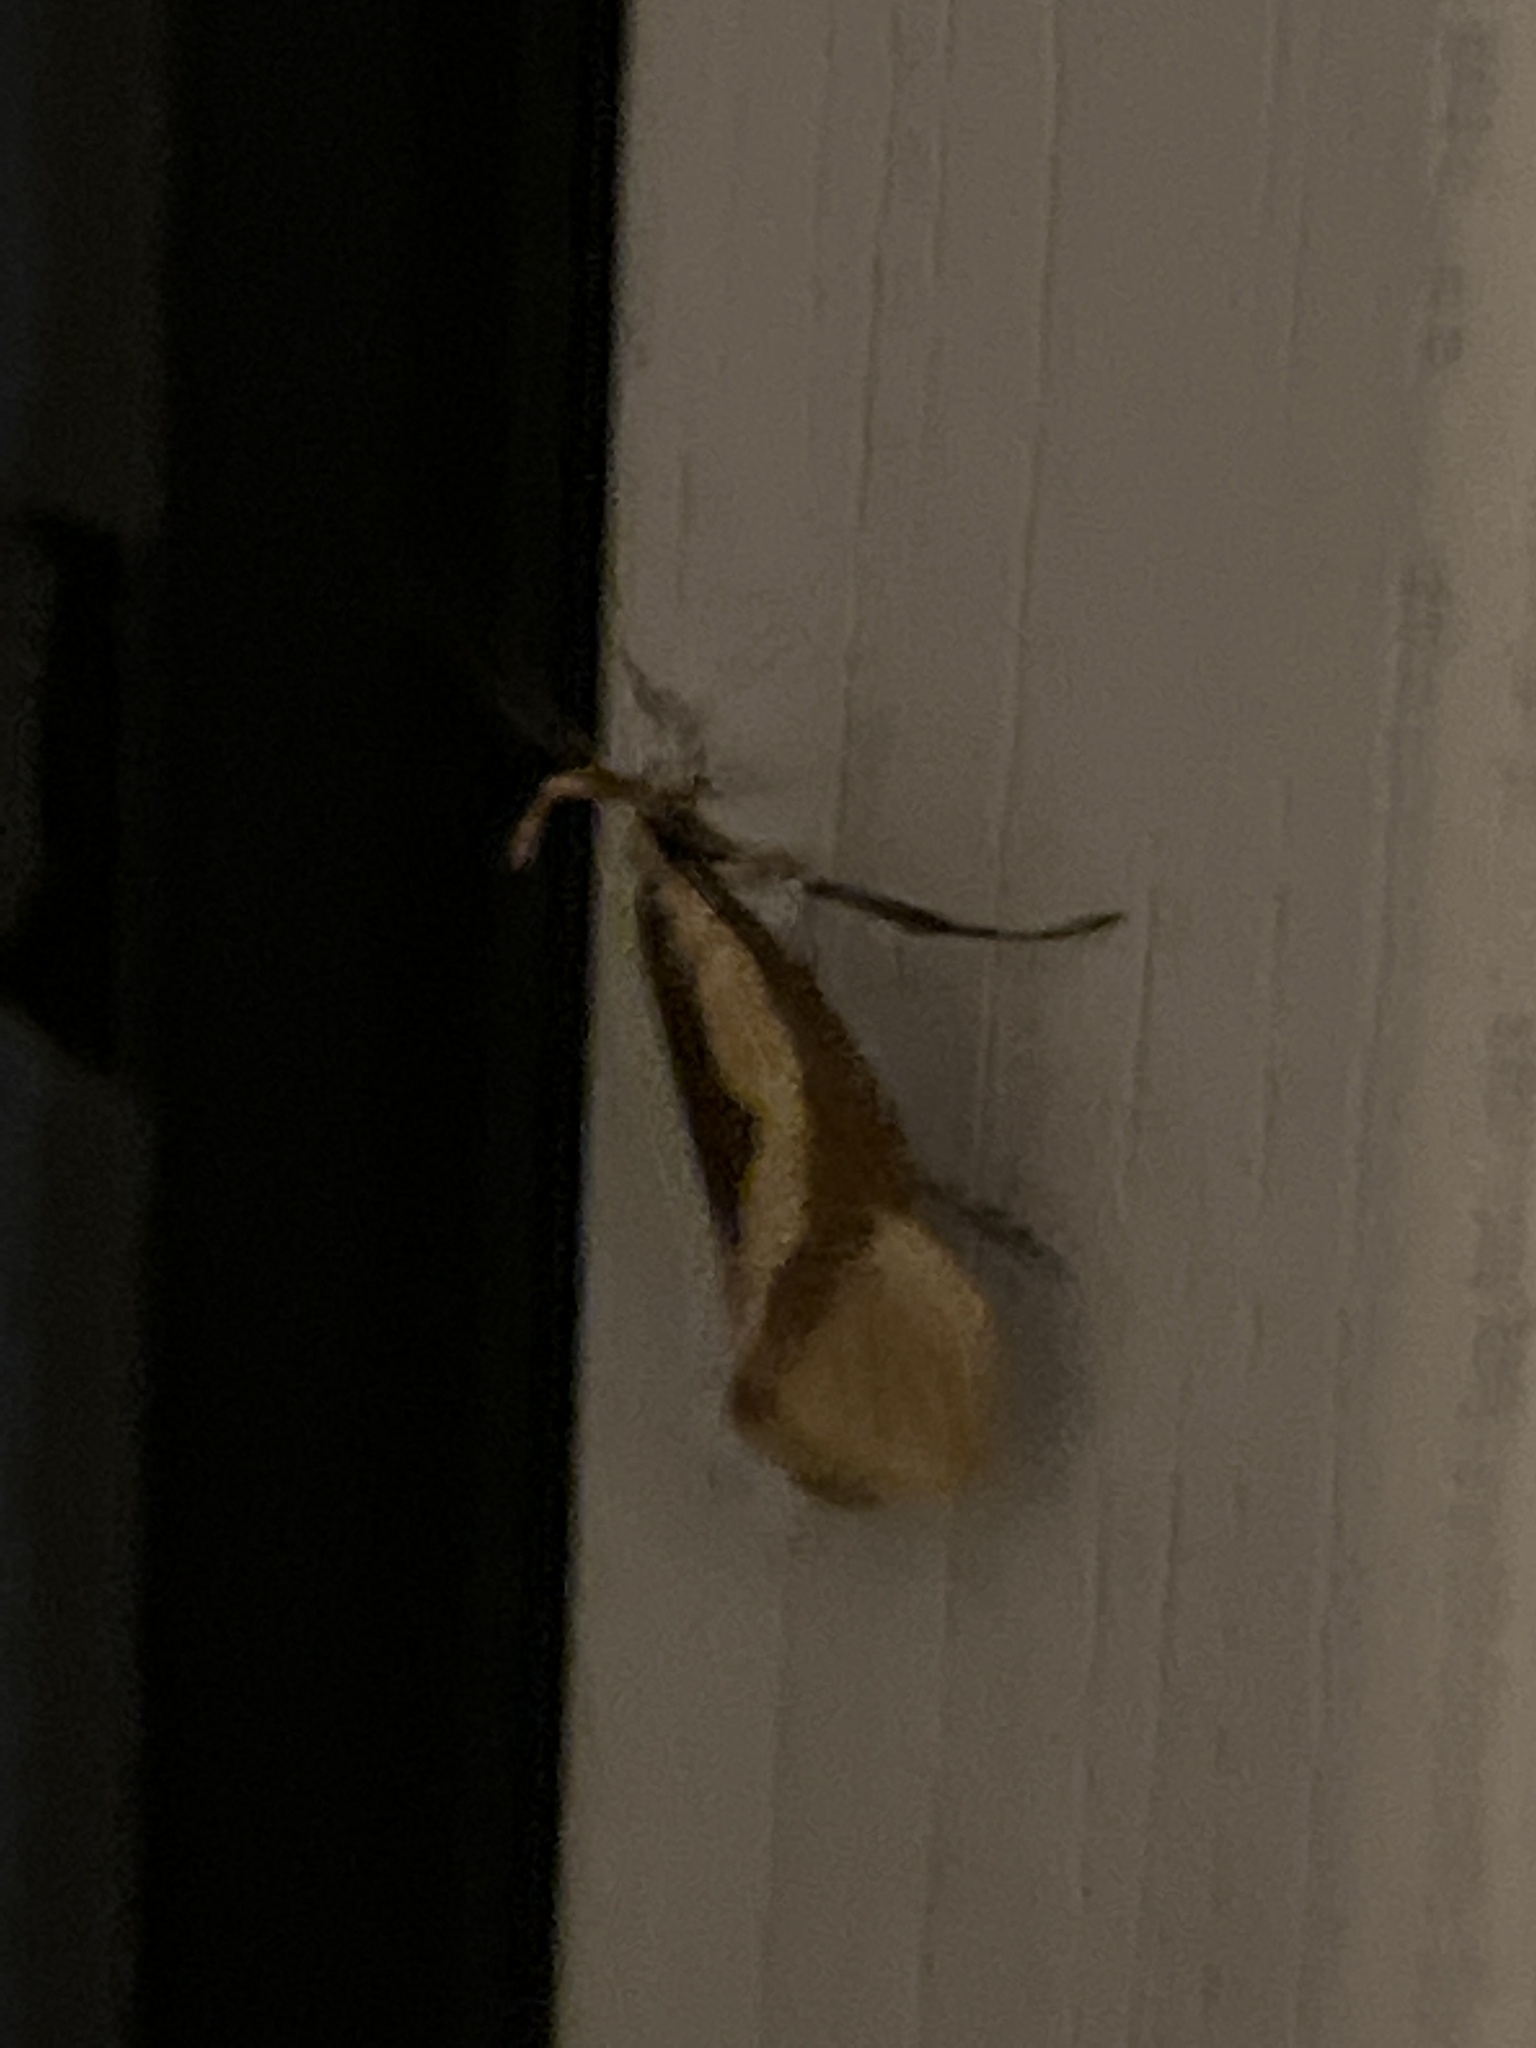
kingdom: Animalia
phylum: Arthropoda
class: Insecta
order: Lepidoptera
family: Oecophoridae
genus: Harpella
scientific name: Harpella forficella
